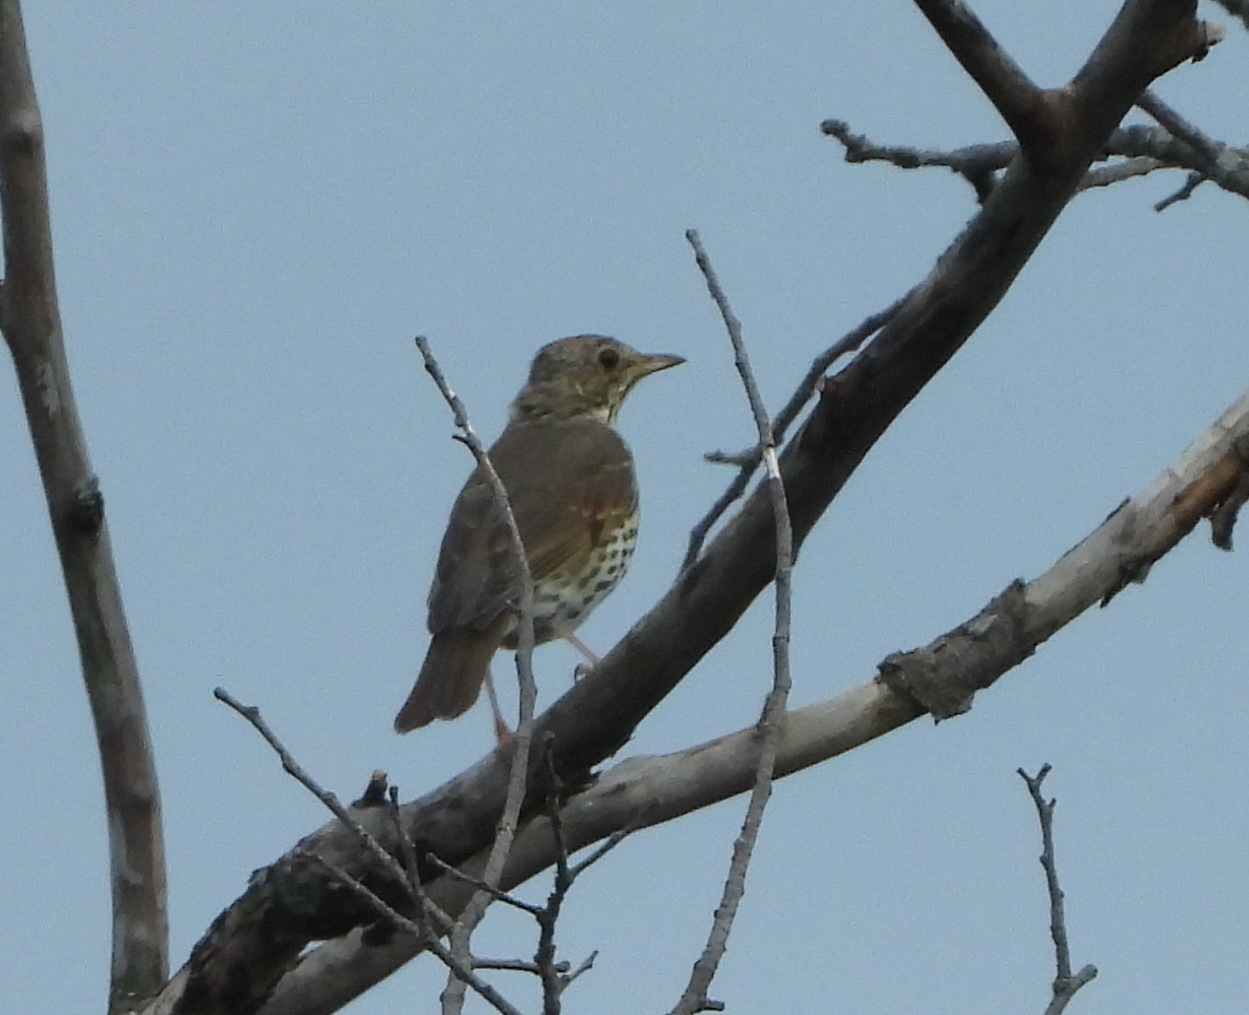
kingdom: Animalia
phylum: Chordata
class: Aves
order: Passeriformes
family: Turdidae
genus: Turdus
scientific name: Turdus philomelos
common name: Song thrush
